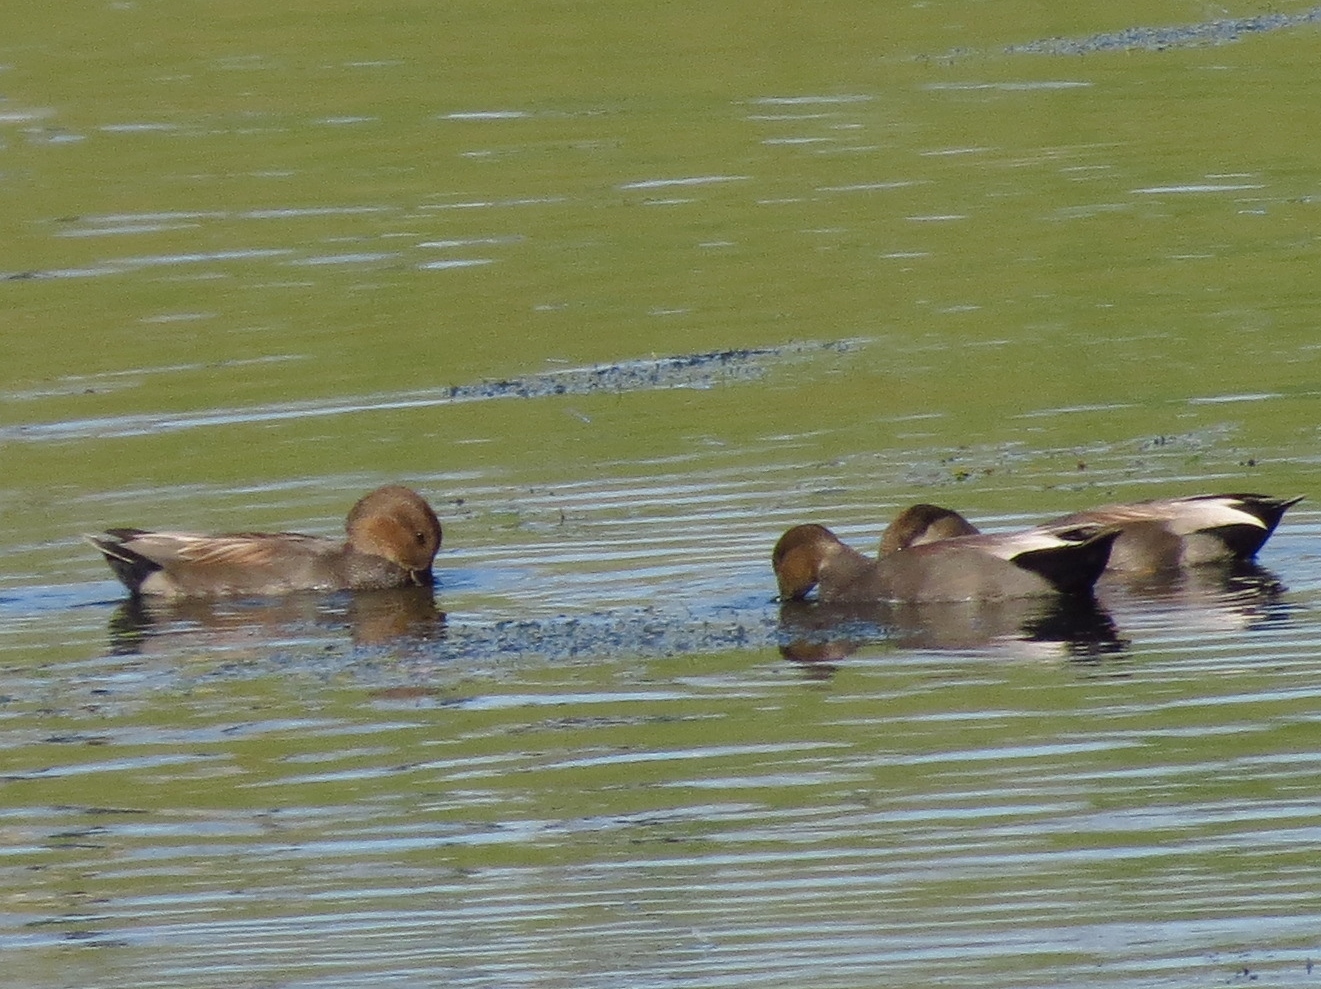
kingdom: Animalia
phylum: Chordata
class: Aves
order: Anseriformes
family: Anatidae
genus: Mareca
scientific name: Mareca strepera
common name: Gadwall
